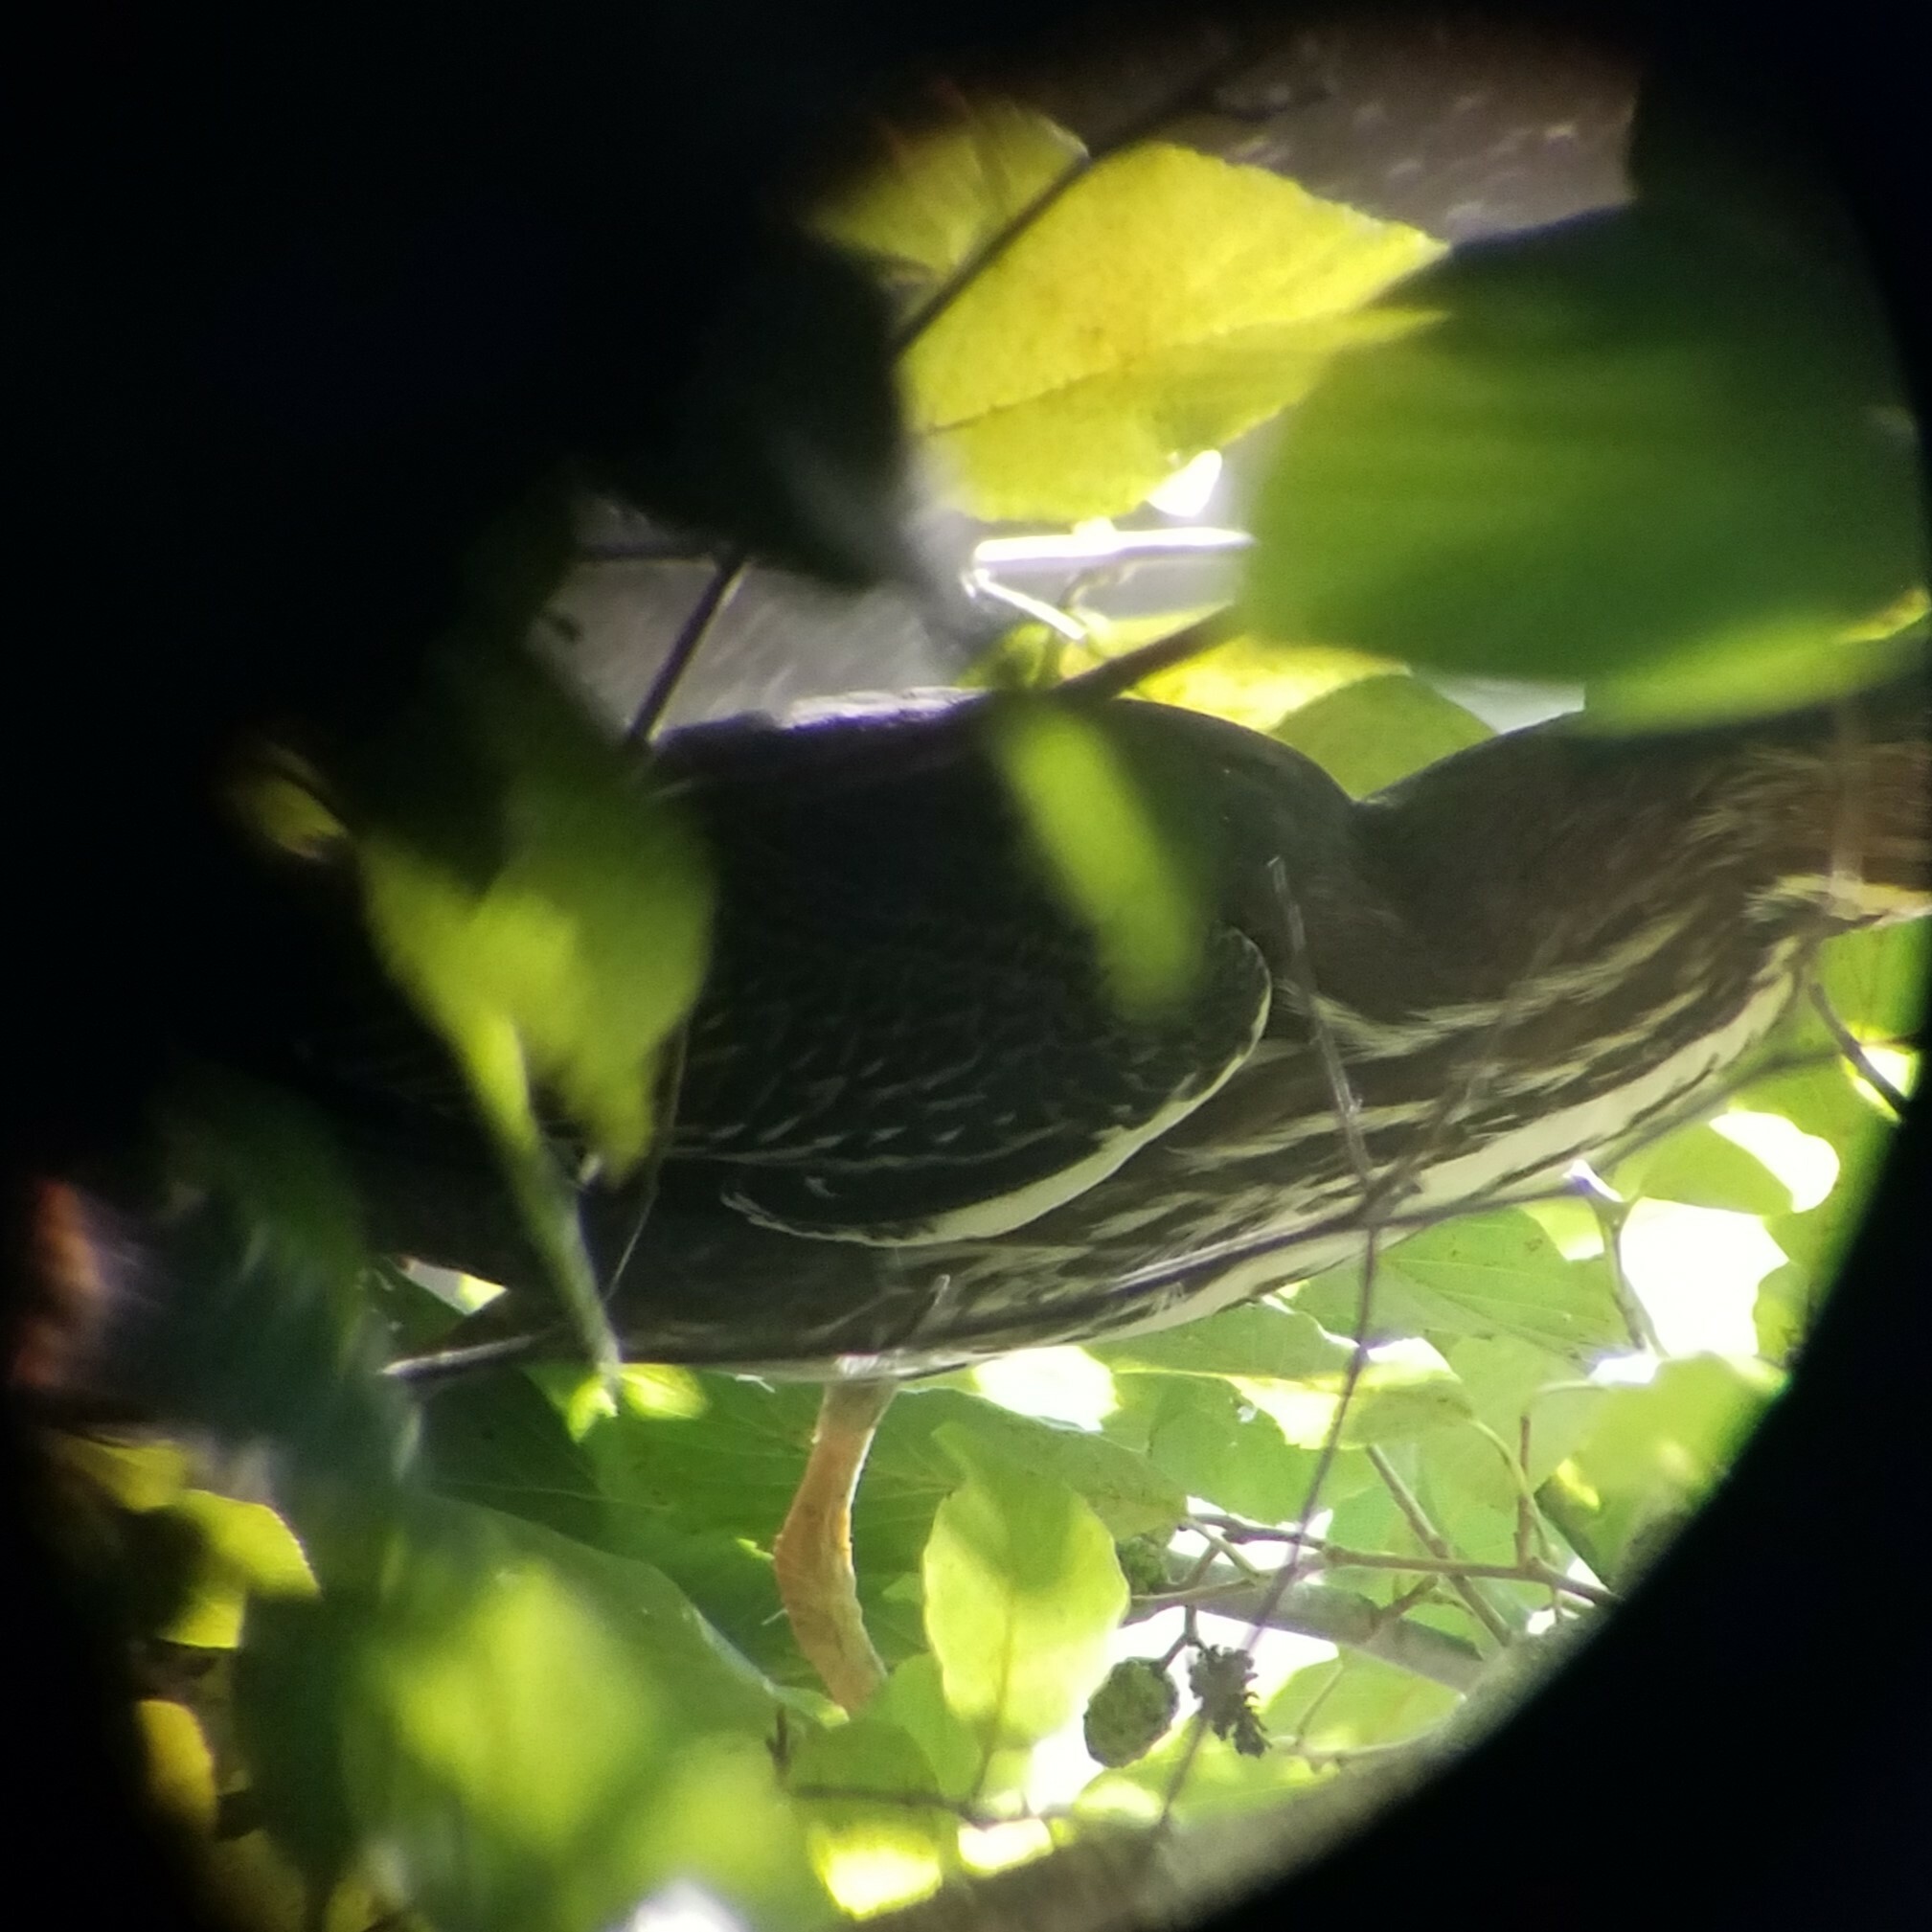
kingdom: Animalia
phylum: Chordata
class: Aves
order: Pelecaniformes
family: Ardeidae
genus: Butorides
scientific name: Butorides virescens
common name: Green heron
